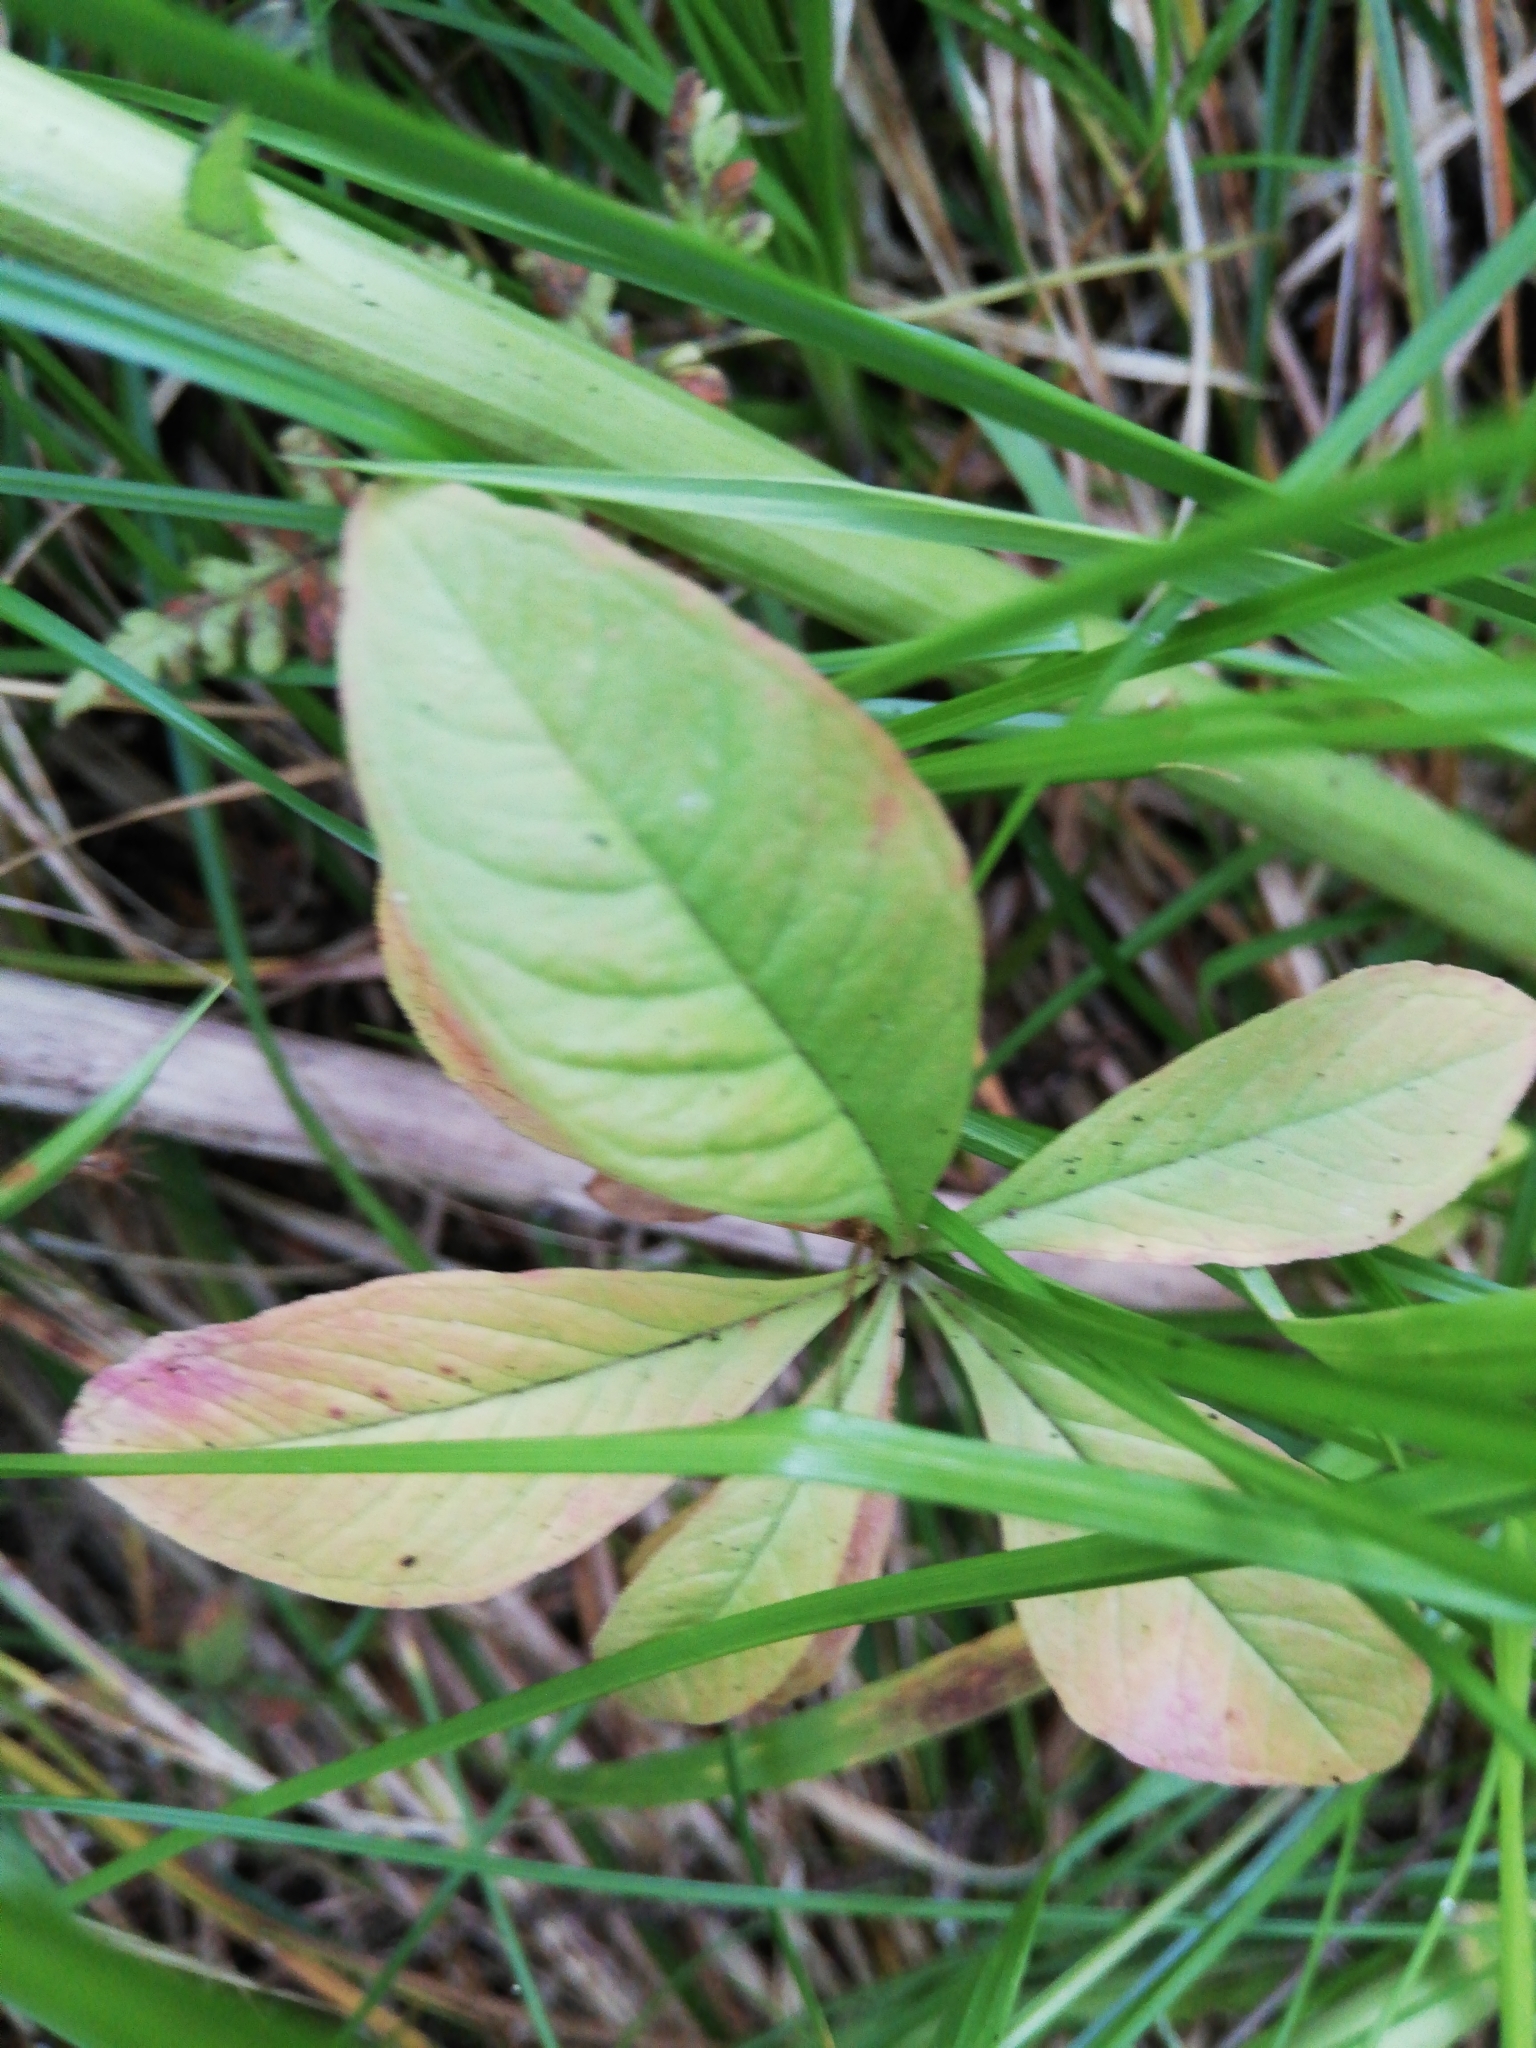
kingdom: Plantae
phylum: Tracheophyta
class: Magnoliopsida
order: Ericales
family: Primulaceae
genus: Lysimachia
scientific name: Lysimachia europaea
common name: Arctic starflower
